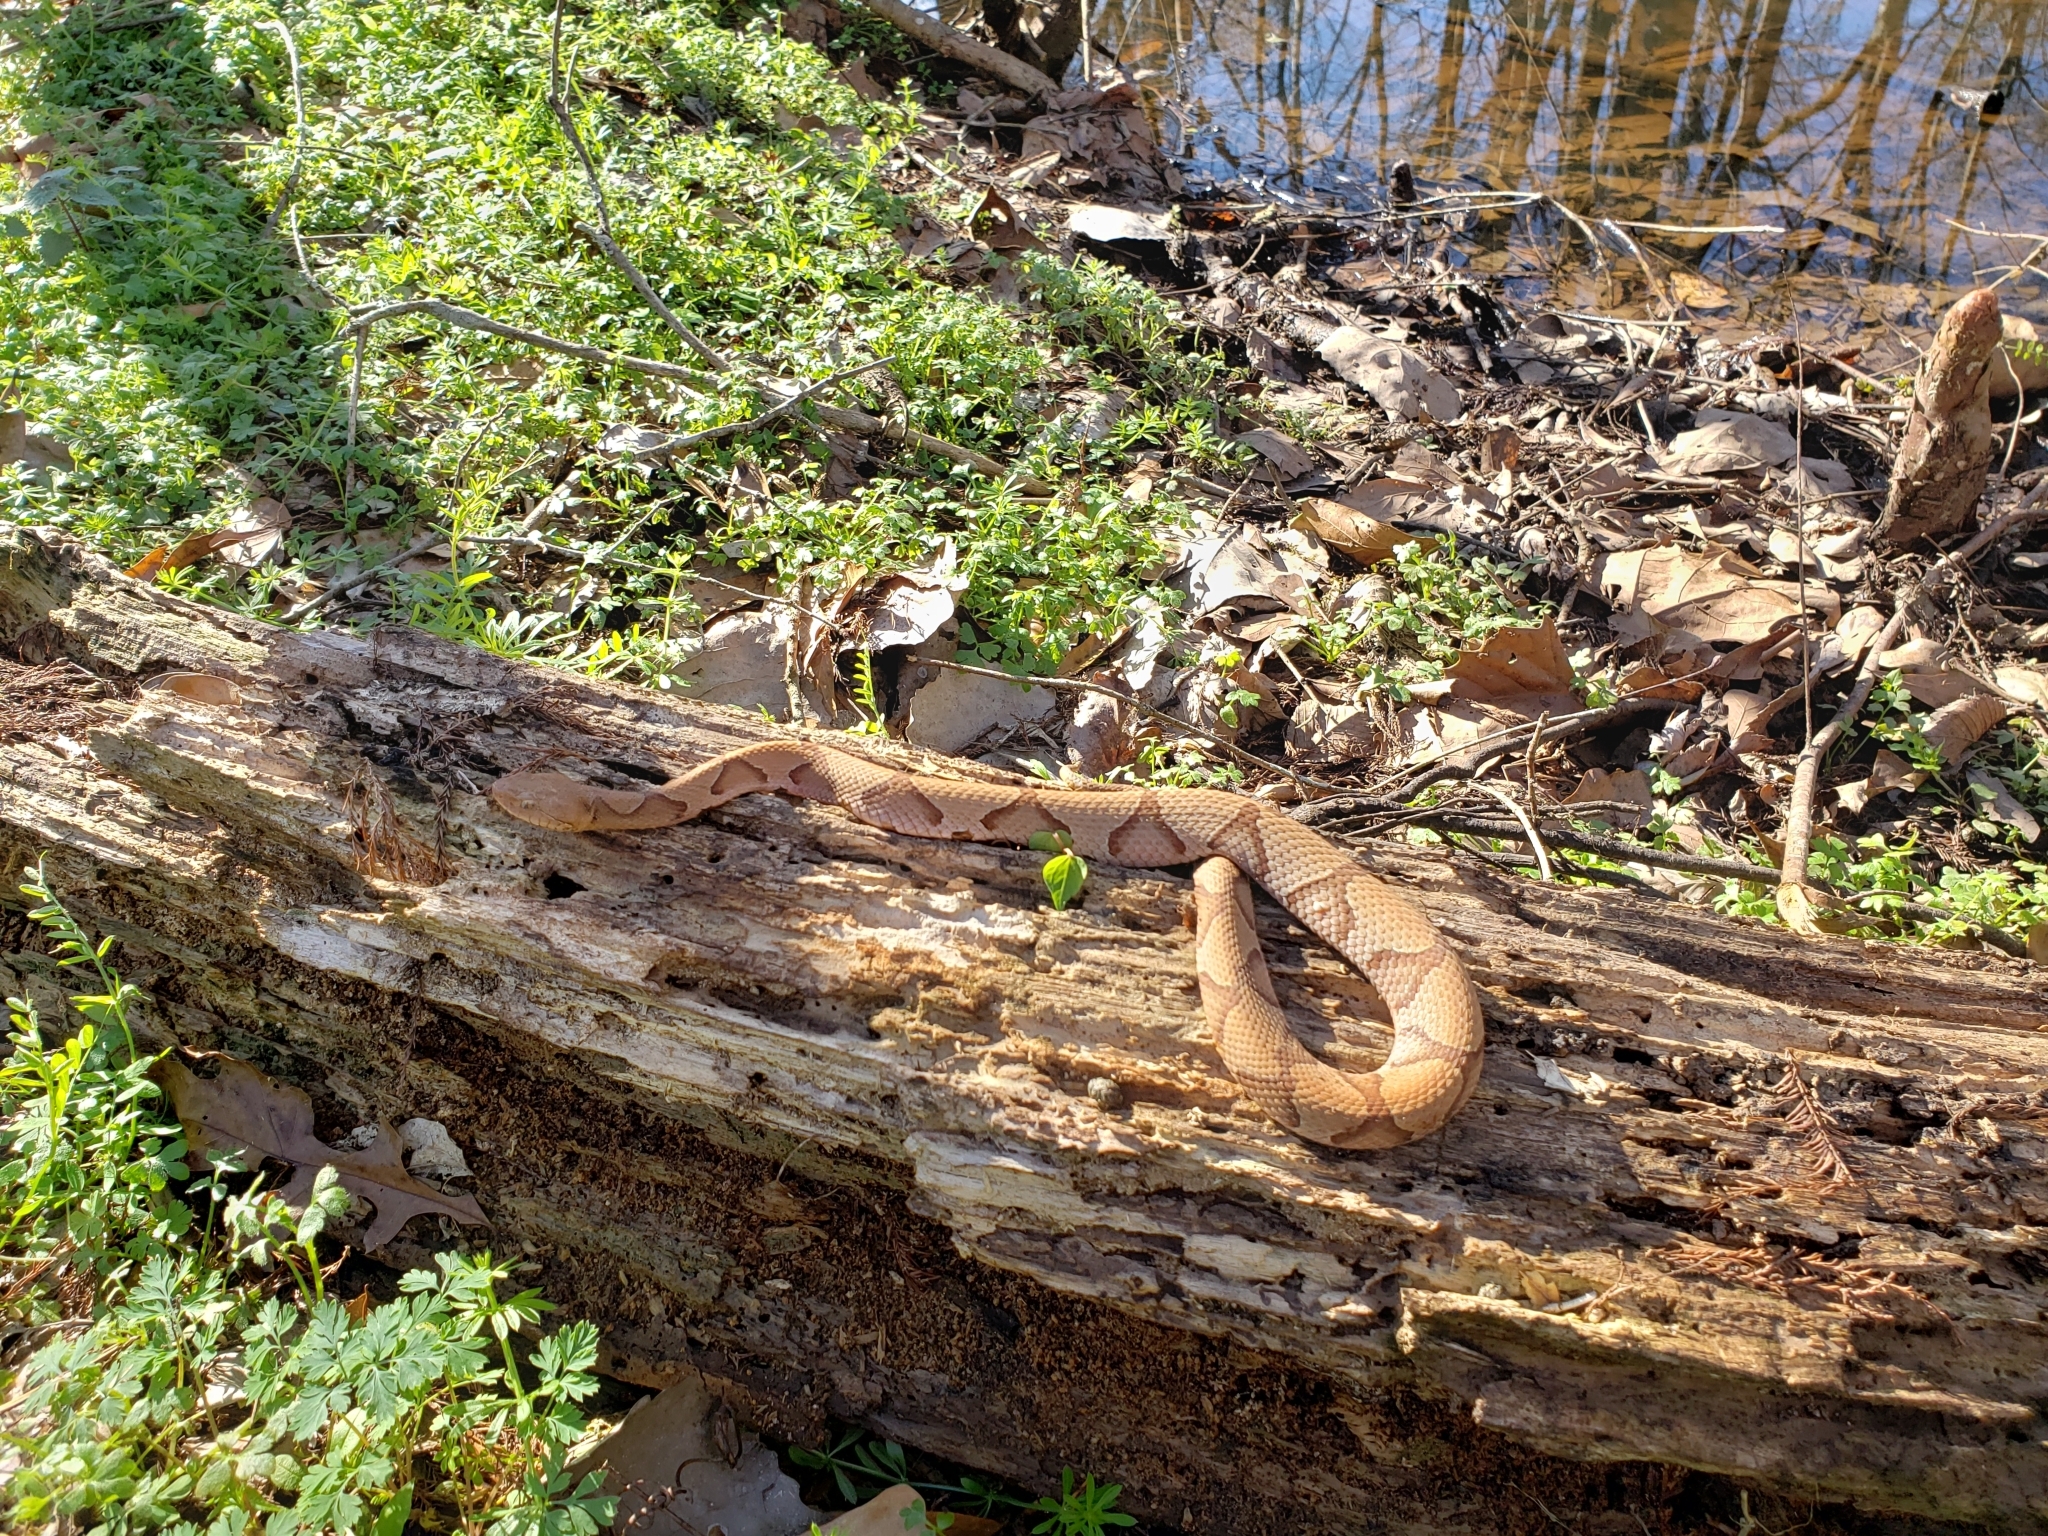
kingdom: Animalia
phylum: Chordata
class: Squamata
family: Viperidae
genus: Agkistrodon
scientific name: Agkistrodon contortrix
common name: Northern copperhead
